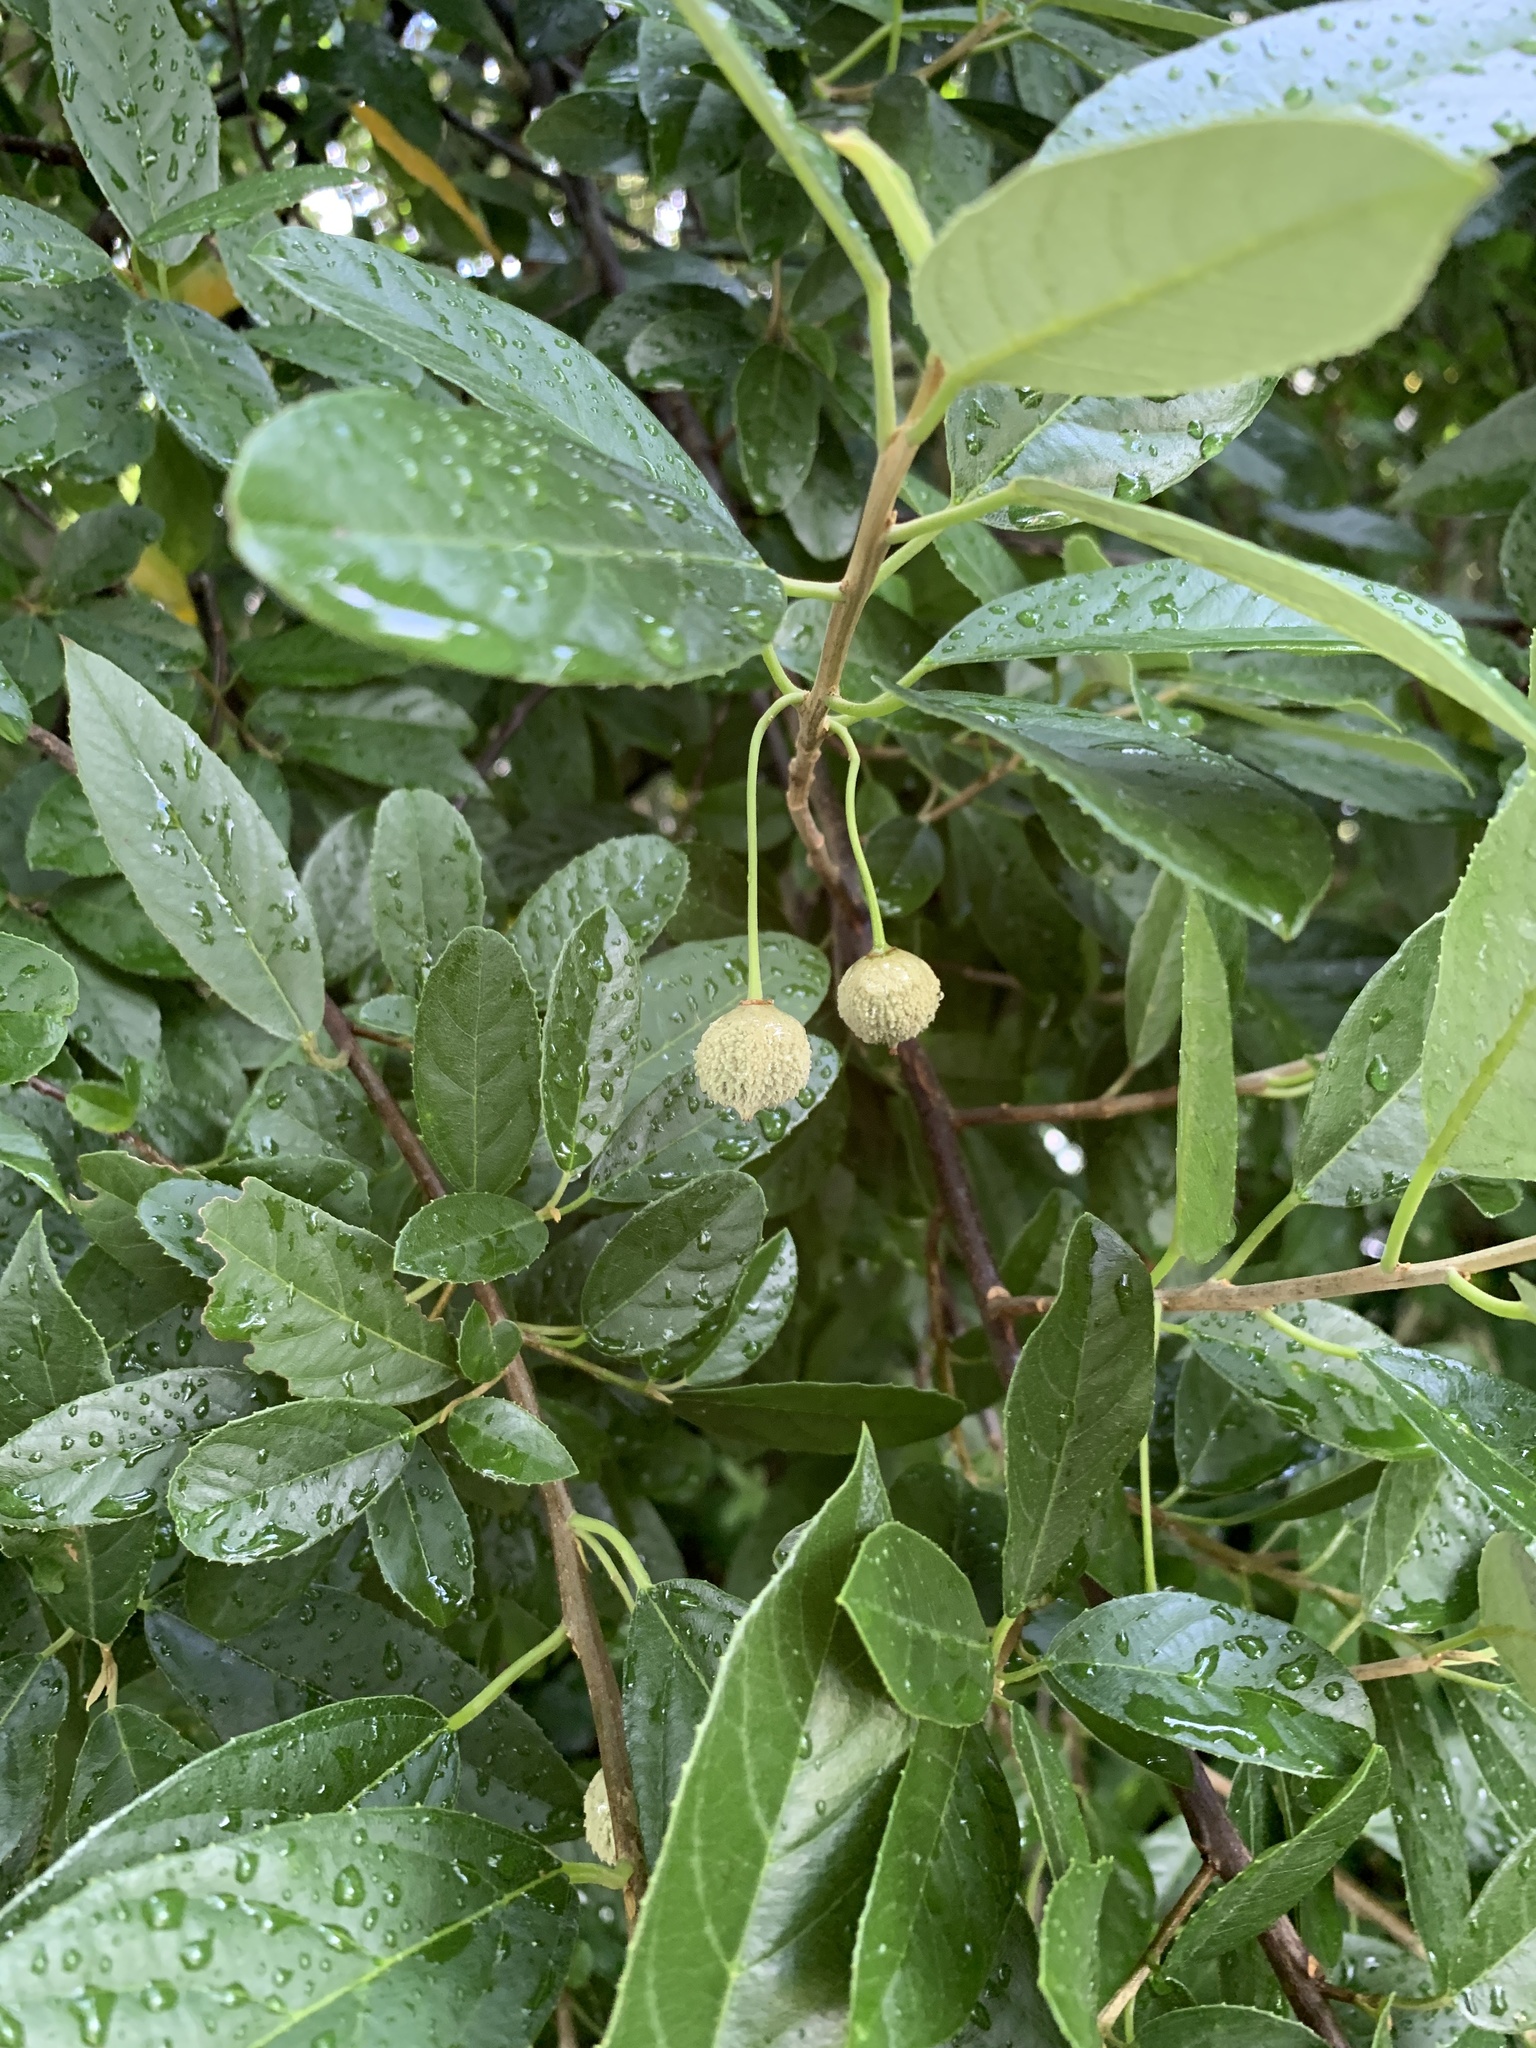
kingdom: Plantae
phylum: Tracheophyta
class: Magnoliopsida
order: Malpighiales
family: Achariaceae
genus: Kiggelaria
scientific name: Kiggelaria africana
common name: Wild peach
